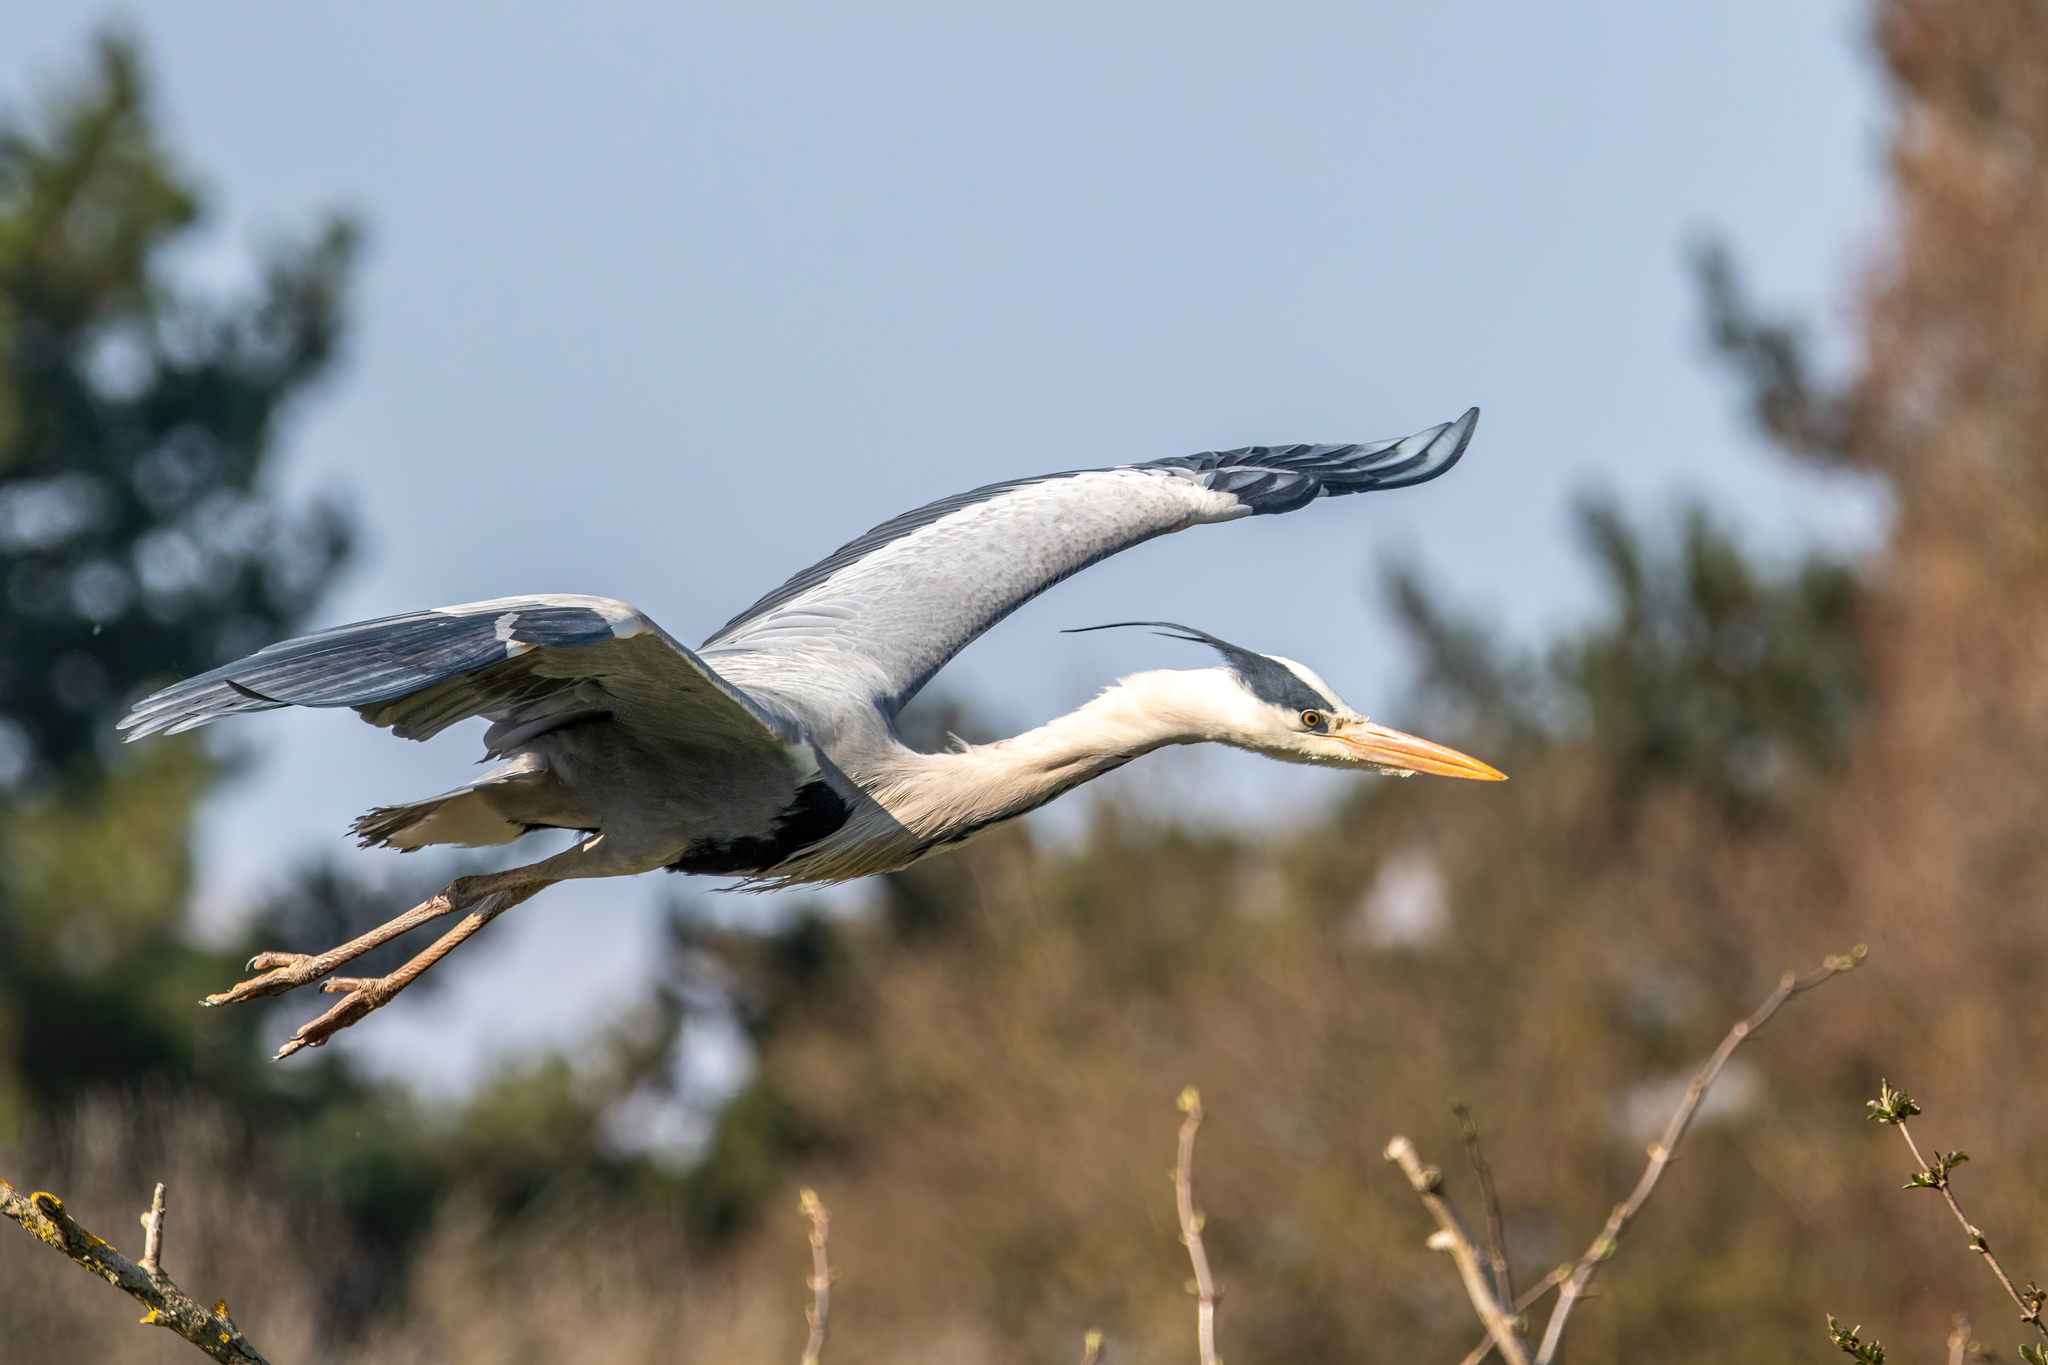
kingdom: Animalia
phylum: Chordata
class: Aves
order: Pelecaniformes
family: Ardeidae
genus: Ardea
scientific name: Ardea cinerea
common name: Grey heron
